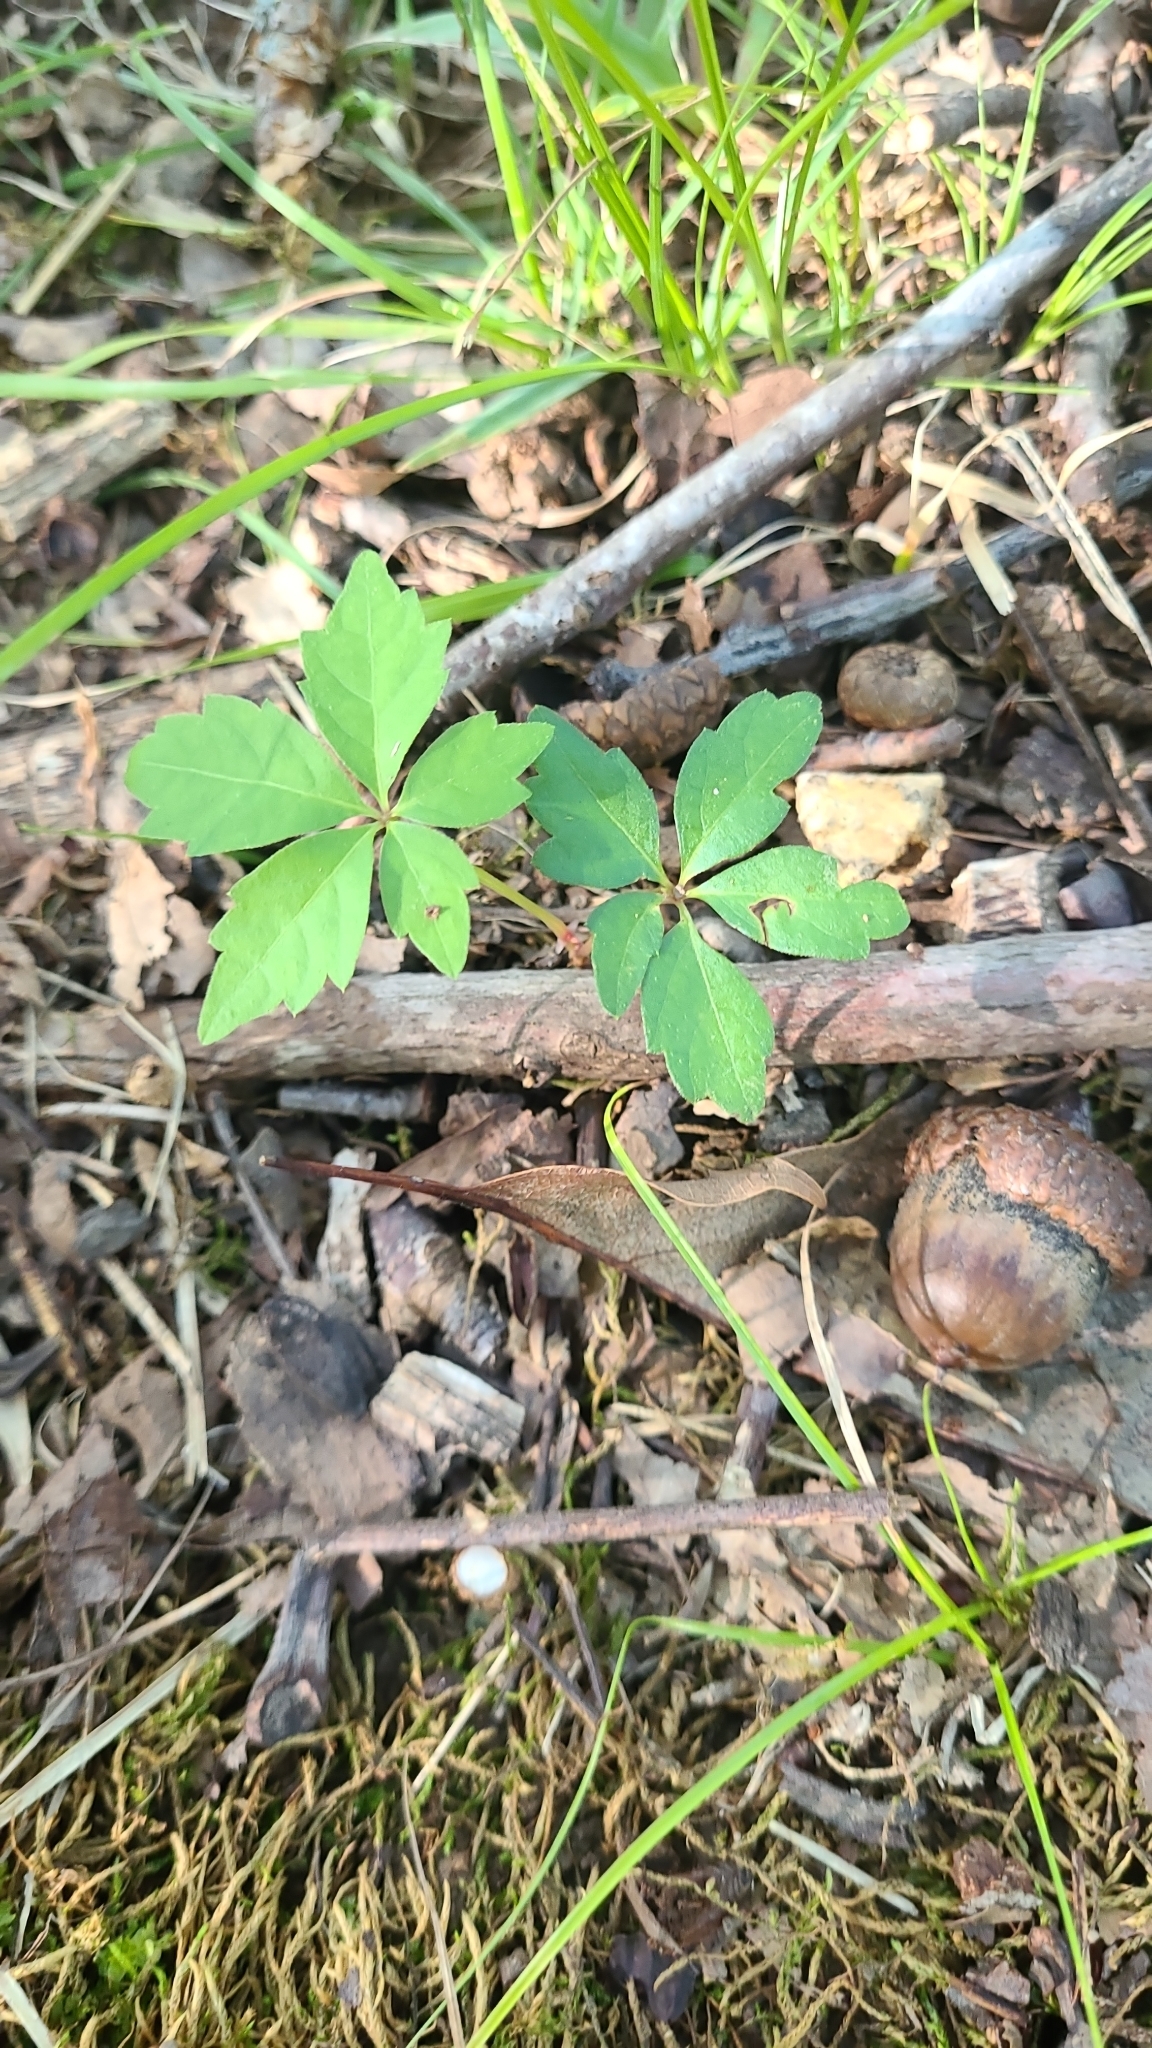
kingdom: Plantae
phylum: Tracheophyta
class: Magnoliopsida
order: Vitales
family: Vitaceae
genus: Parthenocissus
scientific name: Parthenocissus quinquefolia
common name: Virginia-creeper
